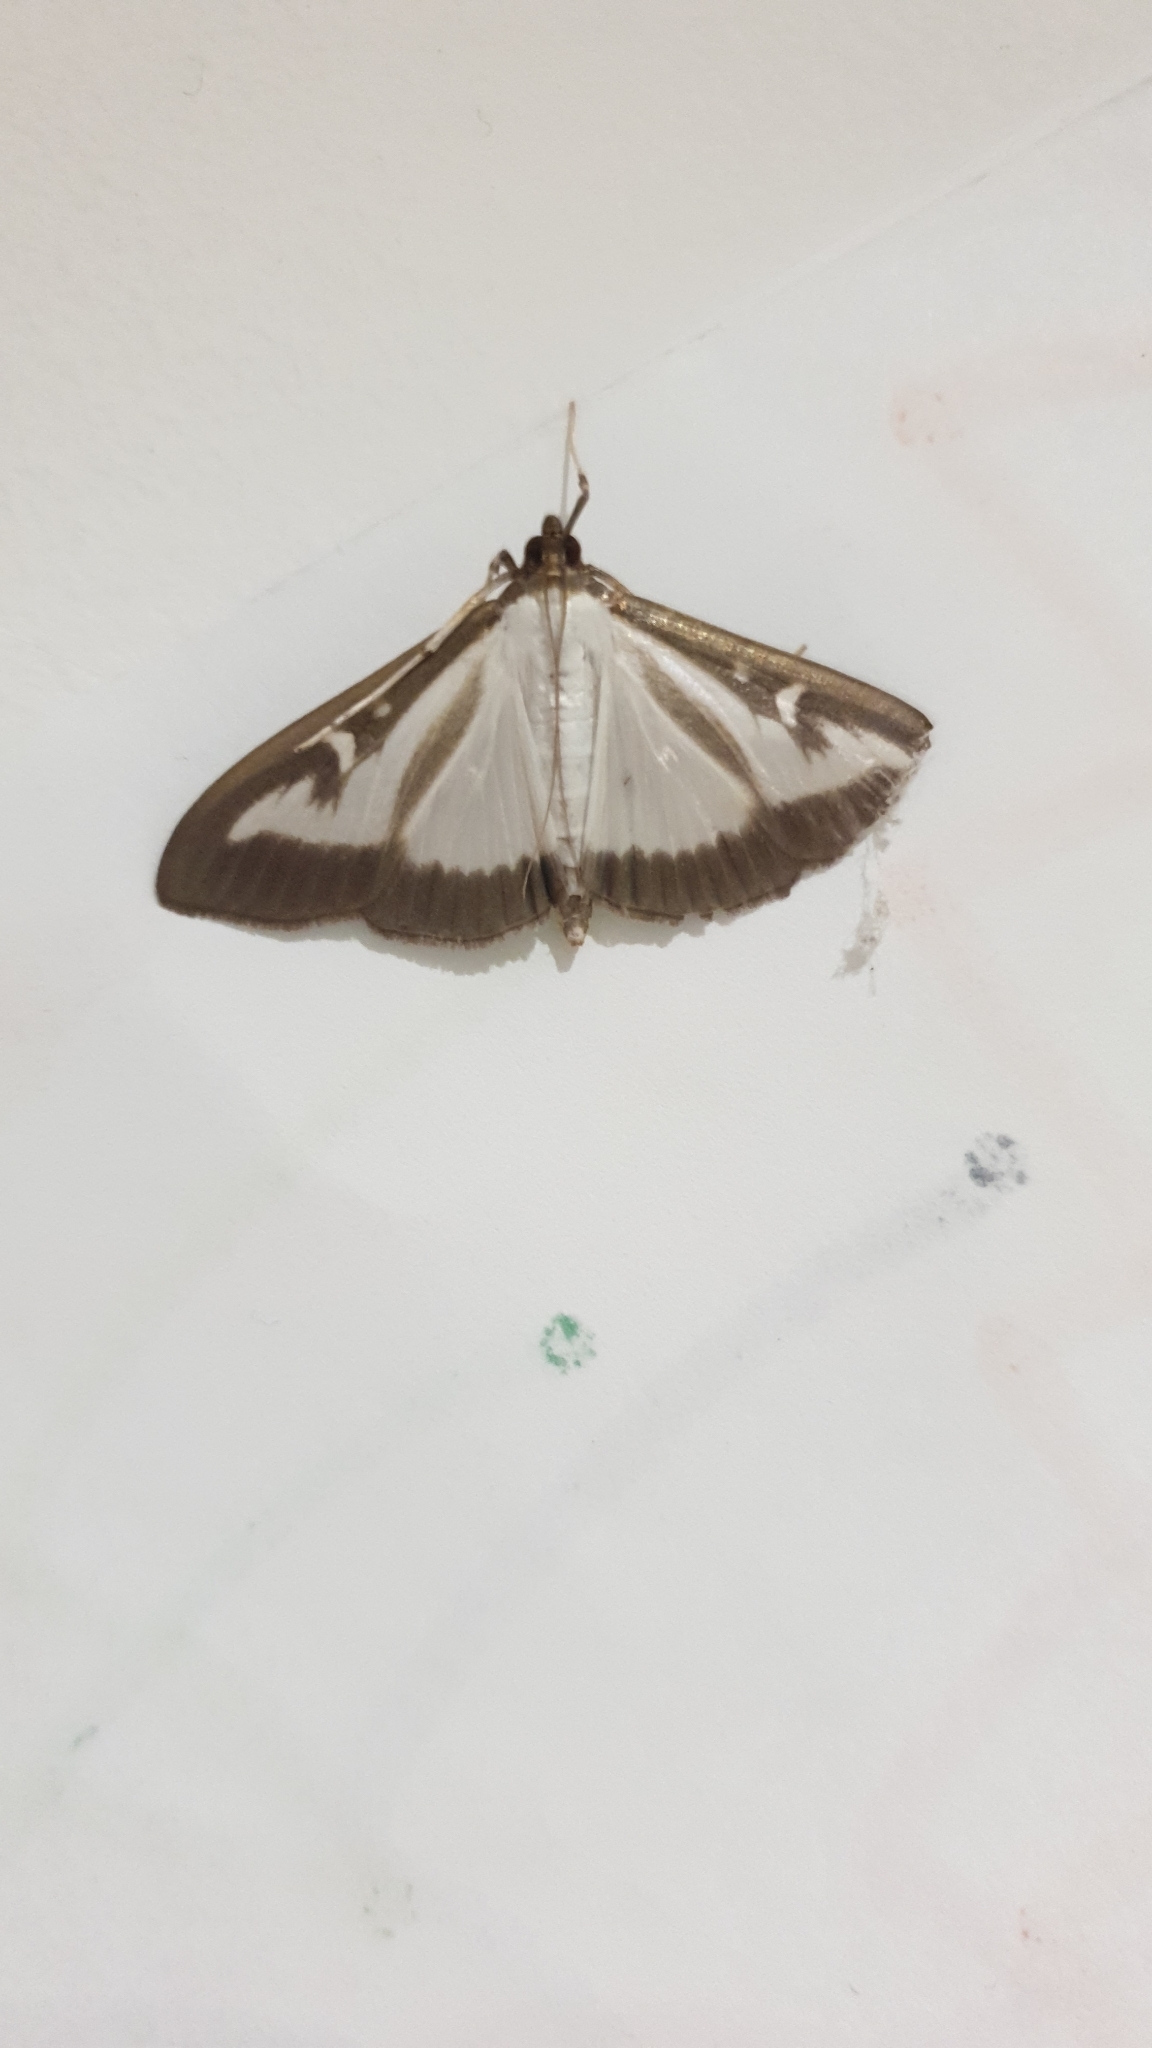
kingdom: Animalia
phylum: Arthropoda
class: Insecta
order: Lepidoptera
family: Crambidae
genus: Cydalima
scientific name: Cydalima perspectalis
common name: Box tree moth
